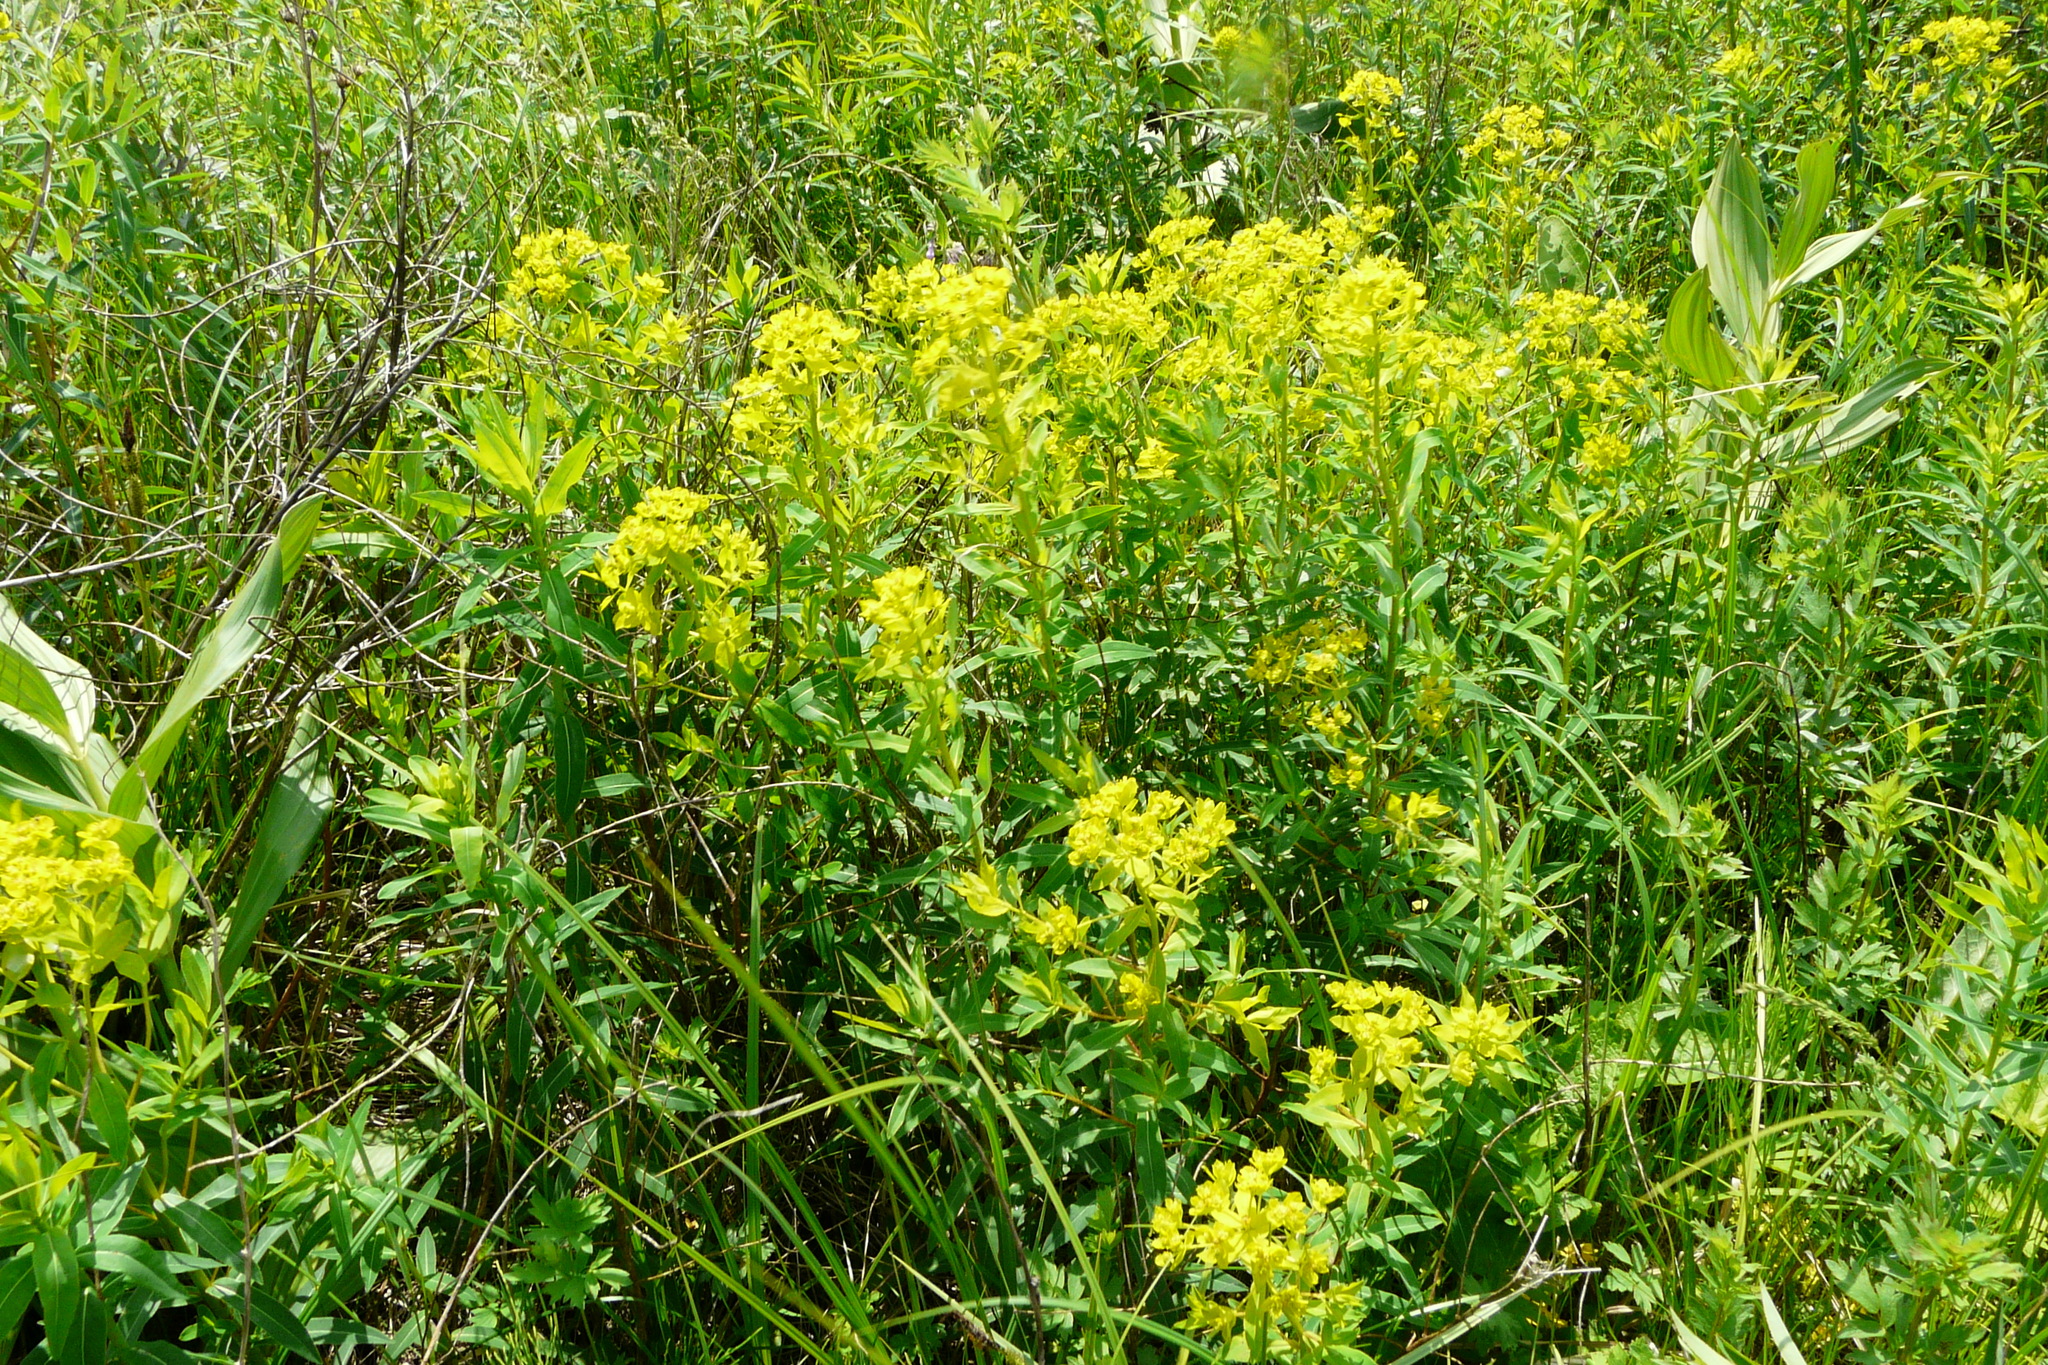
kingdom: Plantae
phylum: Tracheophyta
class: Magnoliopsida
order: Malpighiales
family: Euphorbiaceae
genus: Euphorbia
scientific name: Euphorbia semivillosa
